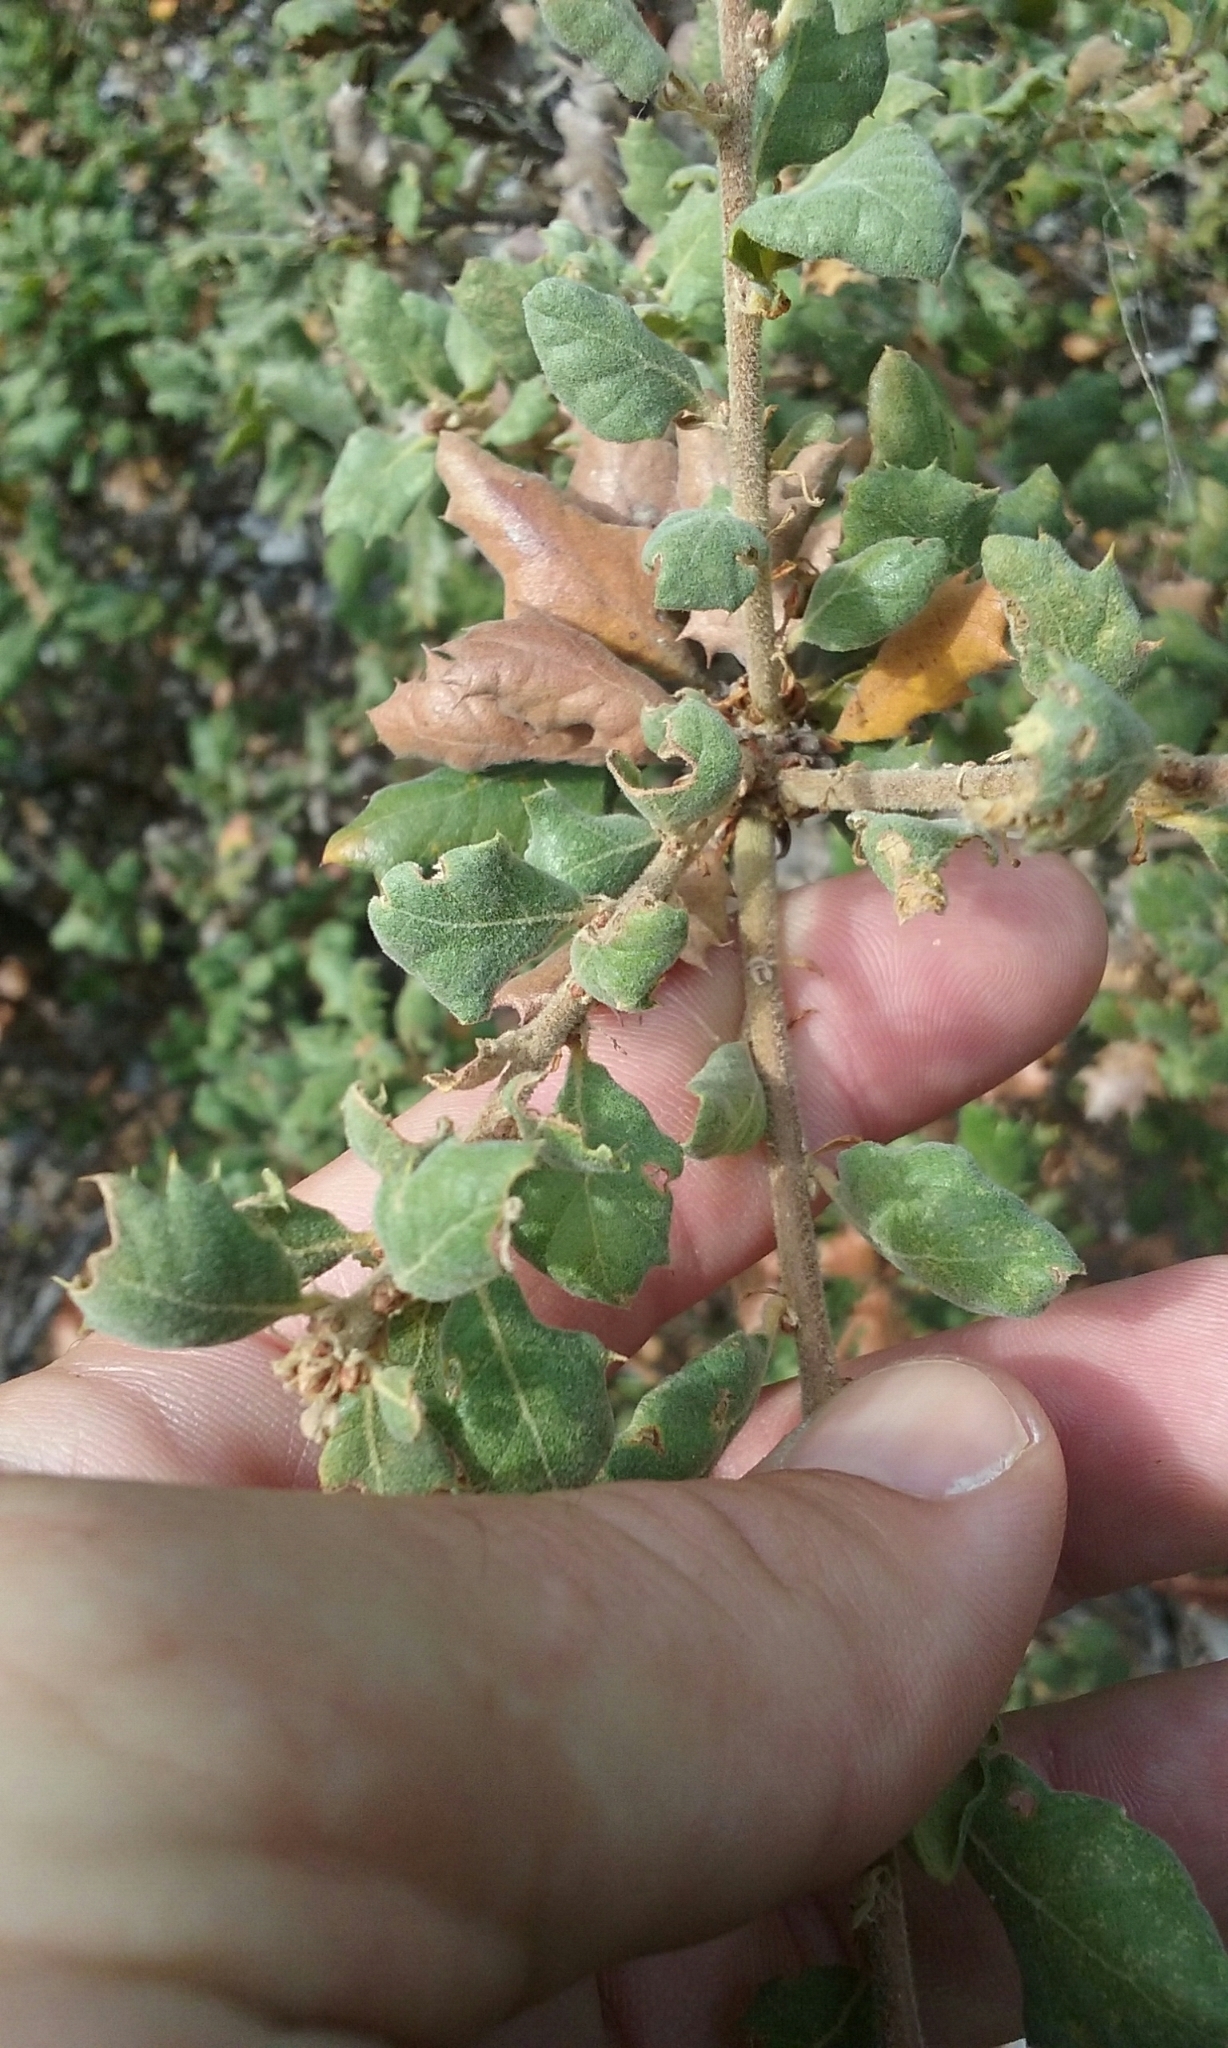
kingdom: Plantae
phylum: Tracheophyta
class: Magnoliopsida
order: Fagales
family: Fagaceae
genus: Quercus
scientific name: Quercus durata
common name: Leather oak
